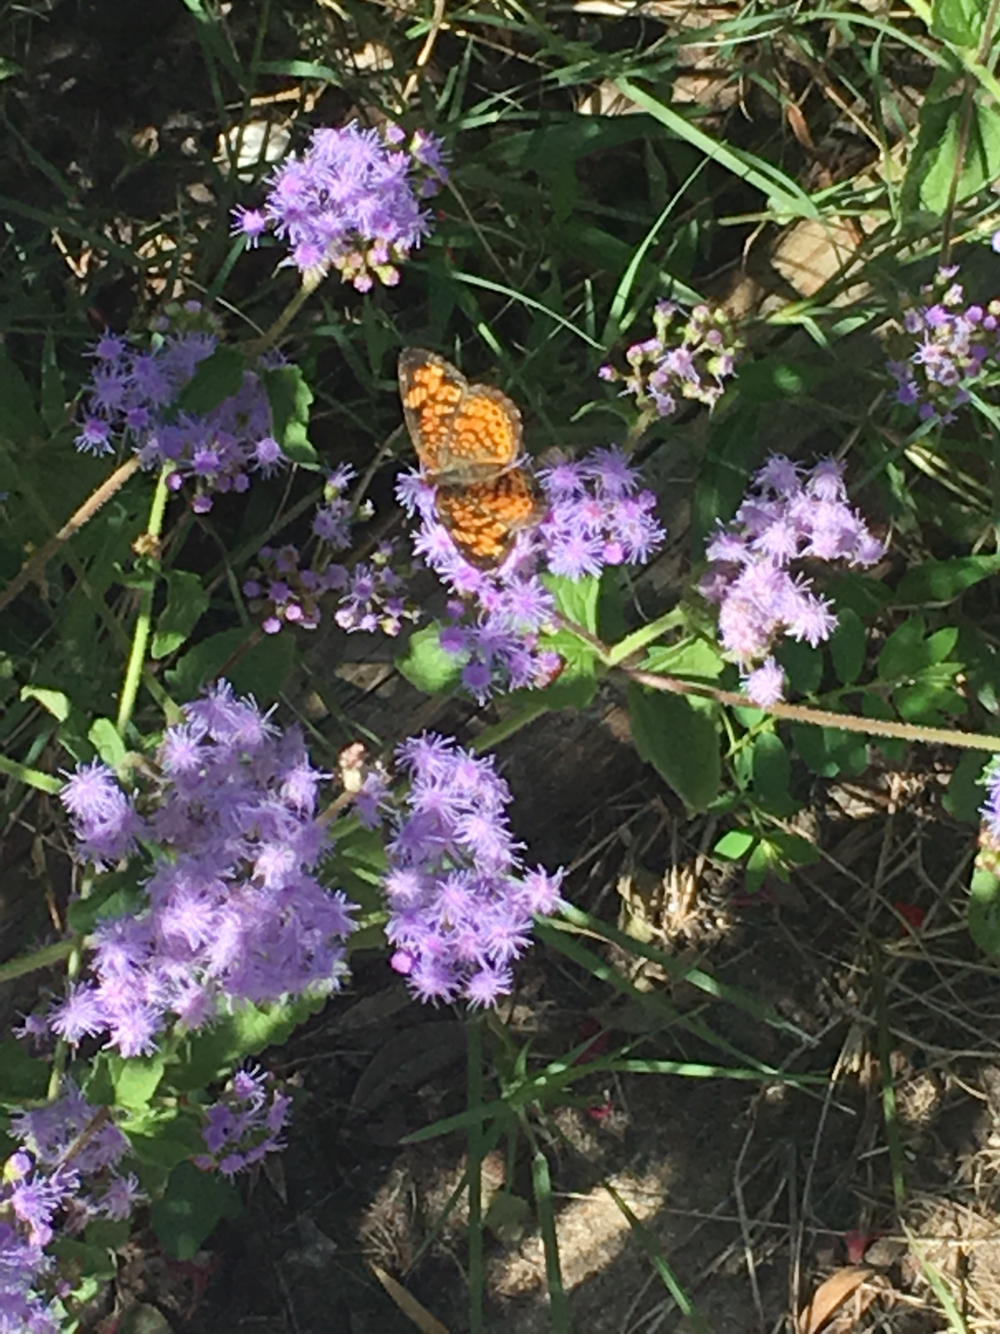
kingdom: Animalia
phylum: Arthropoda
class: Insecta
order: Lepidoptera
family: Nymphalidae
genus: Phyciodes
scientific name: Phyciodes tharos
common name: Pearl crescent
